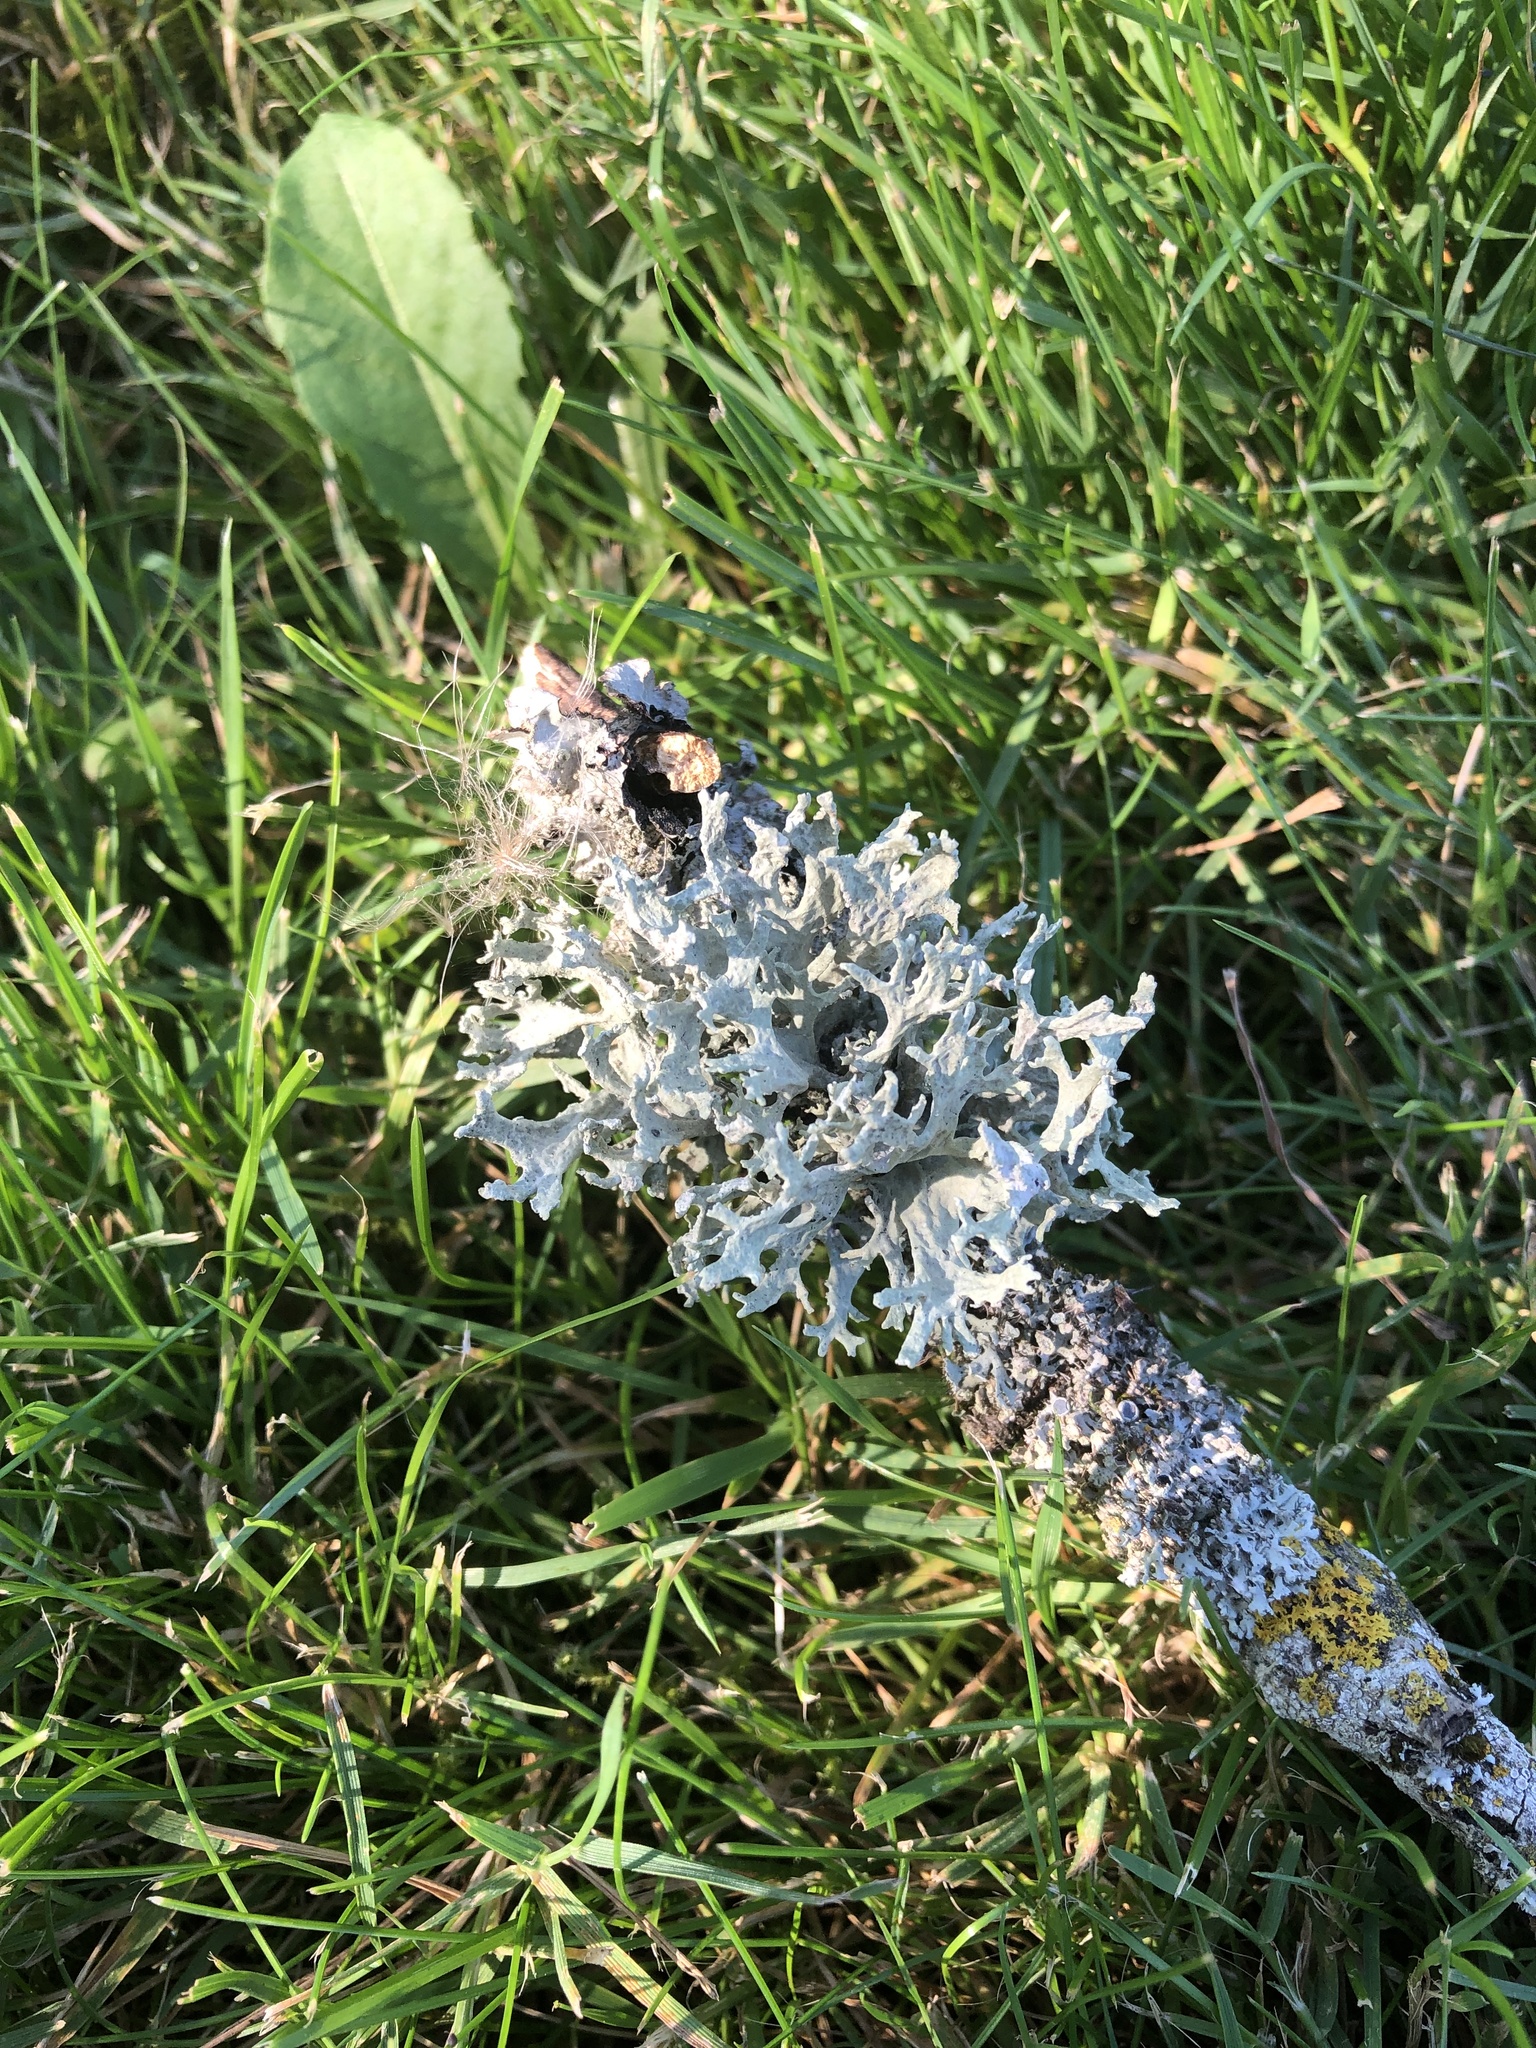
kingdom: Fungi
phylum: Ascomycota
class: Lecanoromycetes
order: Lecanorales
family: Parmeliaceae
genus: Evernia
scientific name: Evernia prunastri
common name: Oak moss
